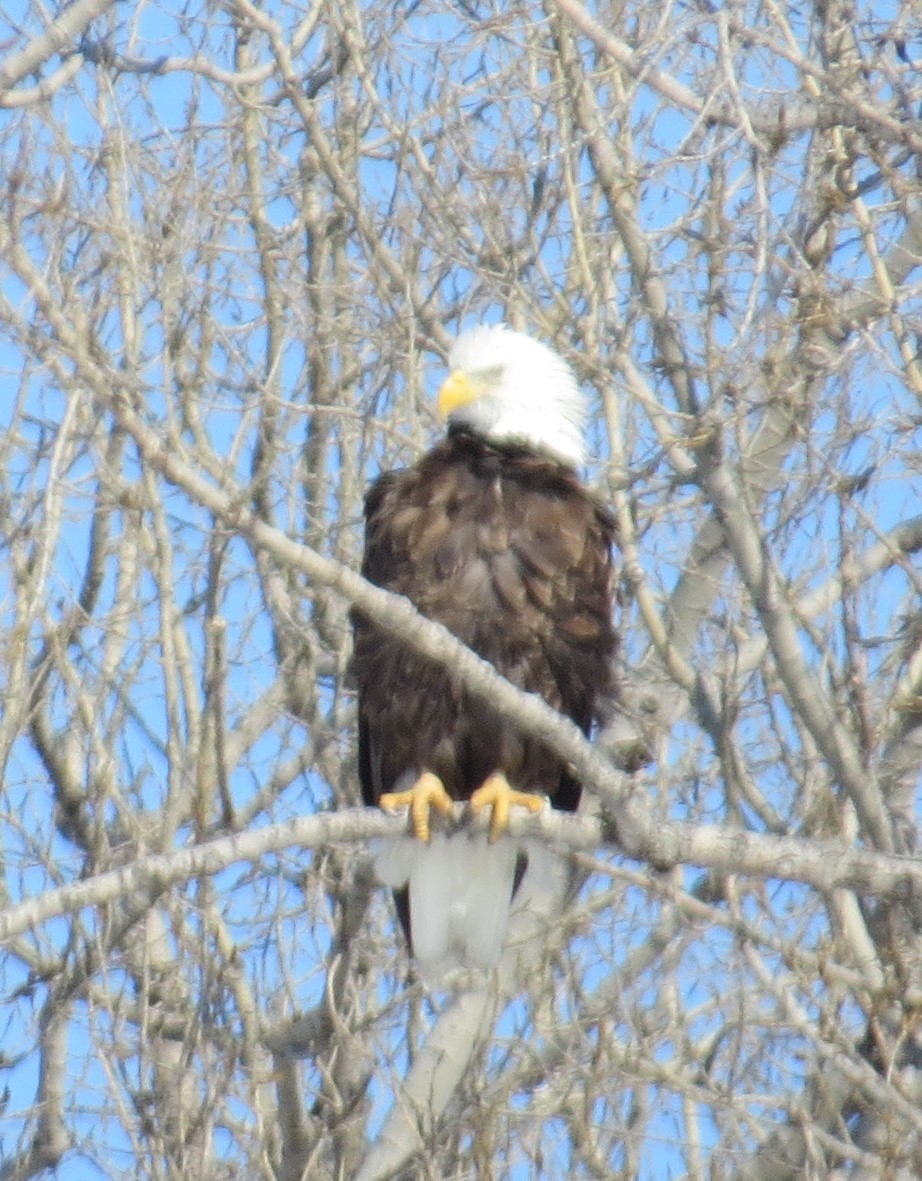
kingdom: Animalia
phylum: Chordata
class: Aves
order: Accipitriformes
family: Accipitridae
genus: Haliaeetus
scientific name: Haliaeetus leucocephalus
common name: Bald eagle
